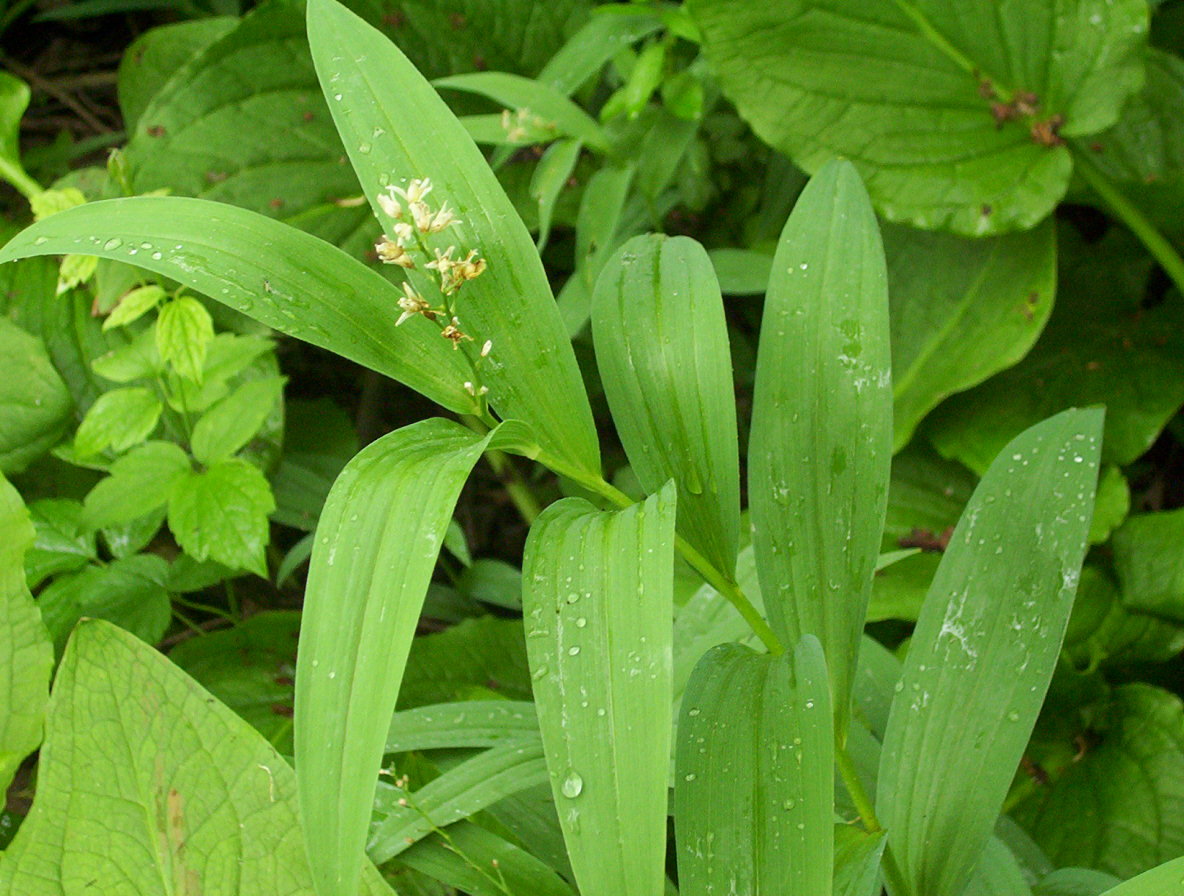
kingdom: Plantae
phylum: Tracheophyta
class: Liliopsida
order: Asparagales
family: Asparagaceae
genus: Maianthemum
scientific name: Maianthemum stellatum
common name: Little false solomon's seal
